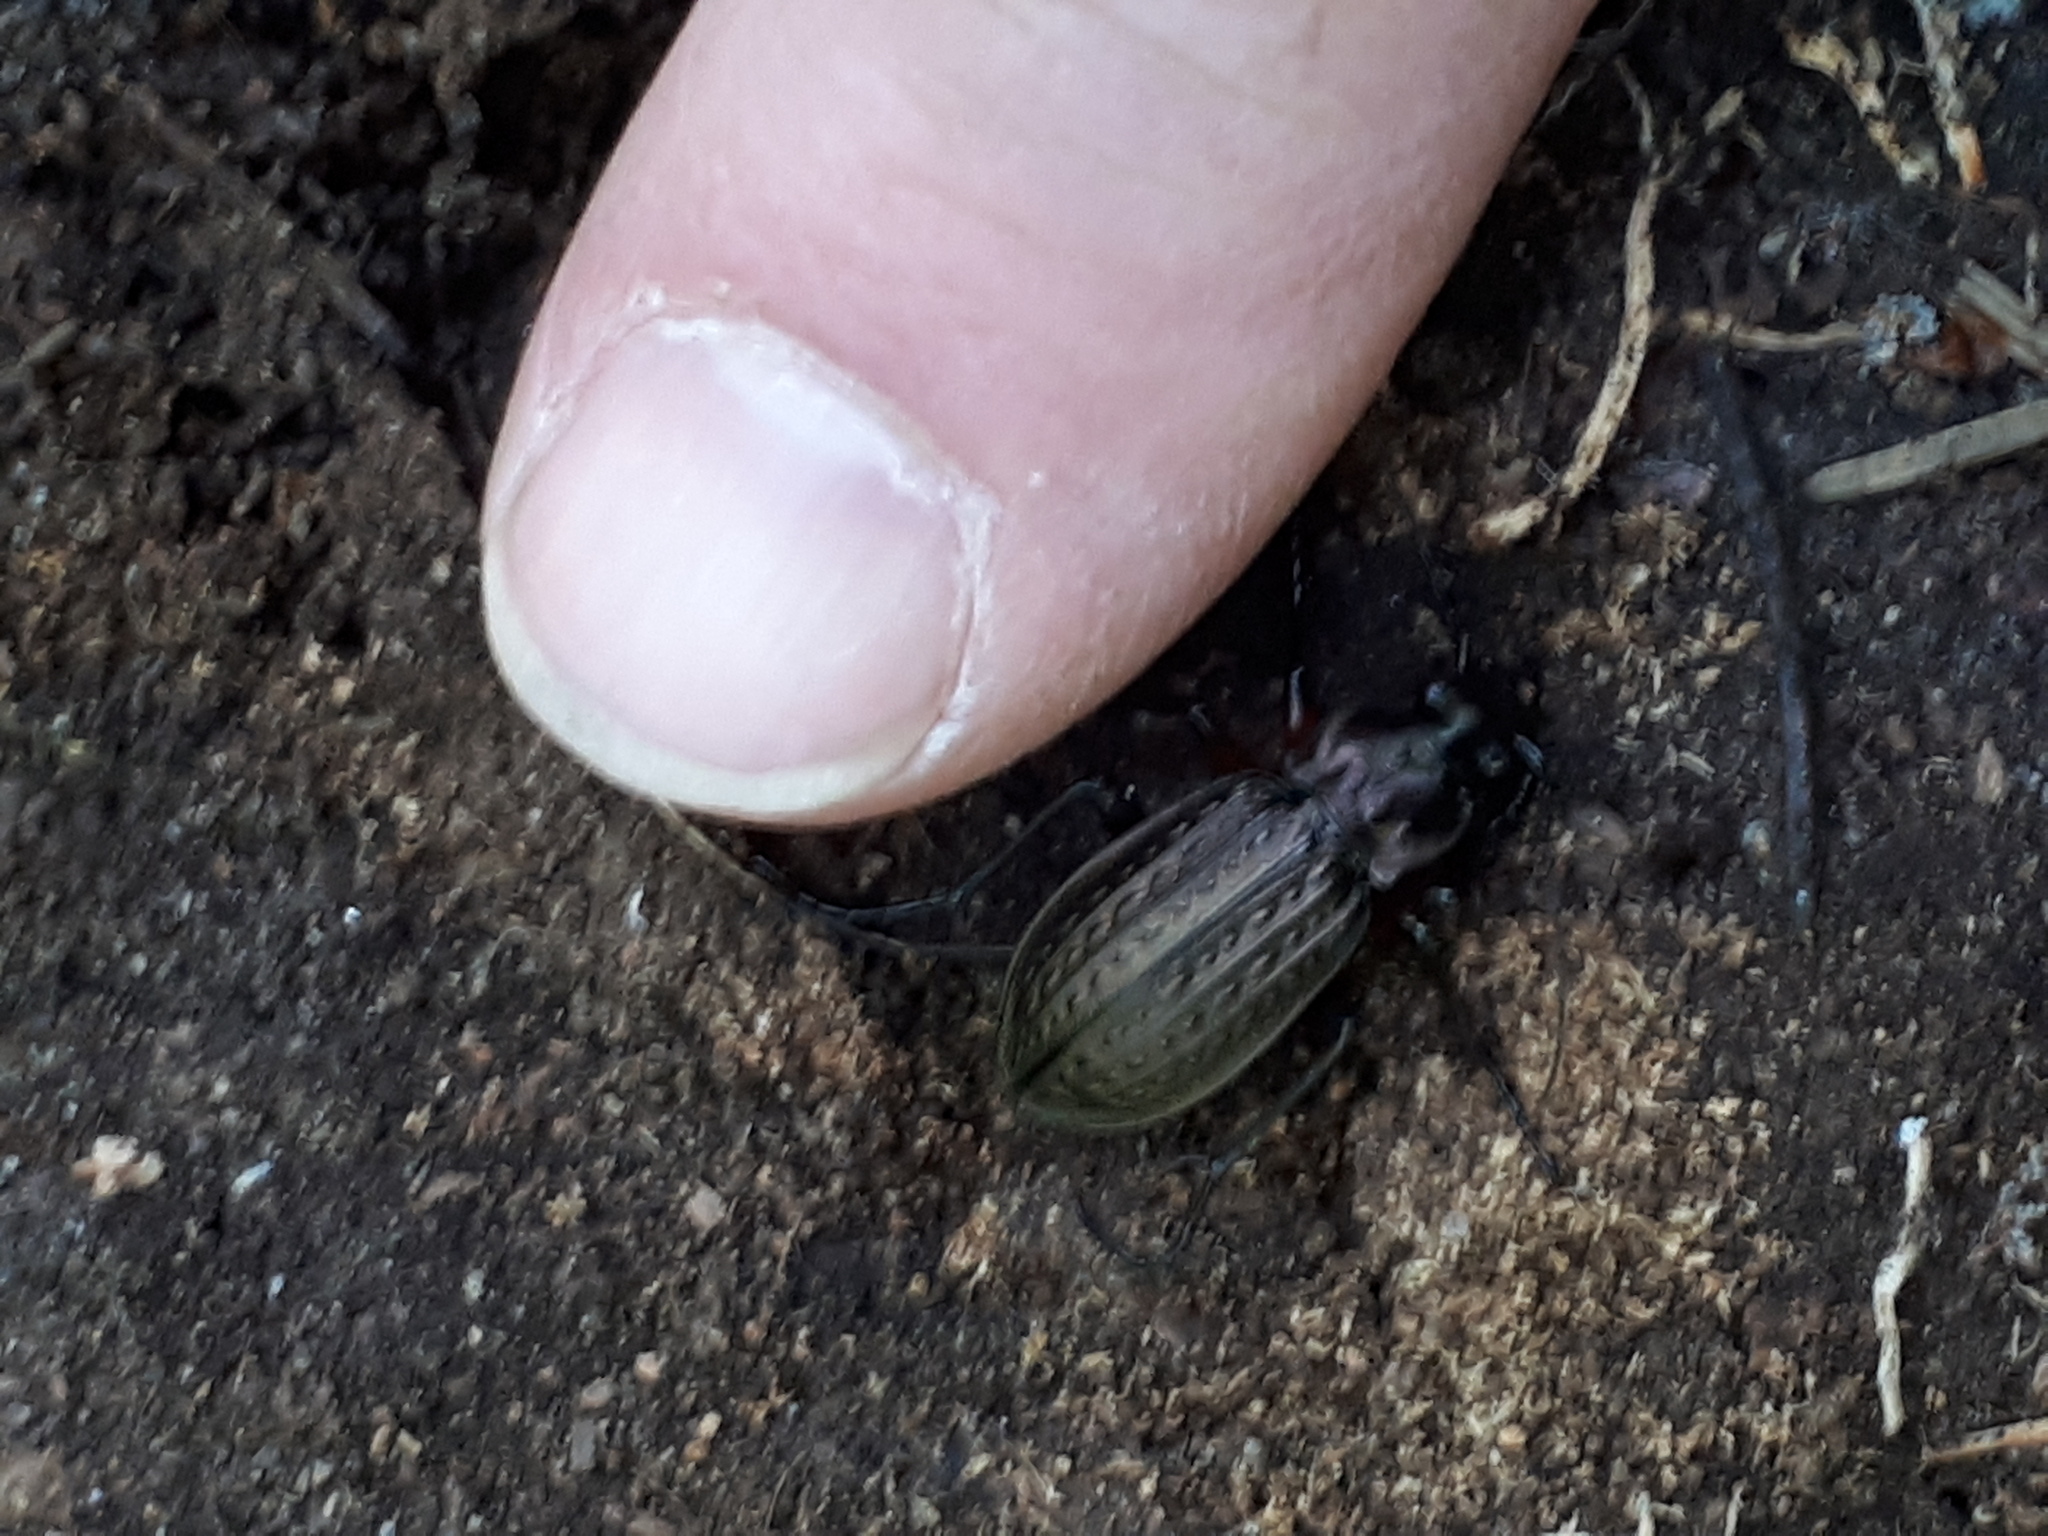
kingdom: Animalia
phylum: Arthropoda
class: Insecta
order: Coleoptera
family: Carabidae
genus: Carabus
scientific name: Carabus granulatus
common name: Granulate ground beetle
